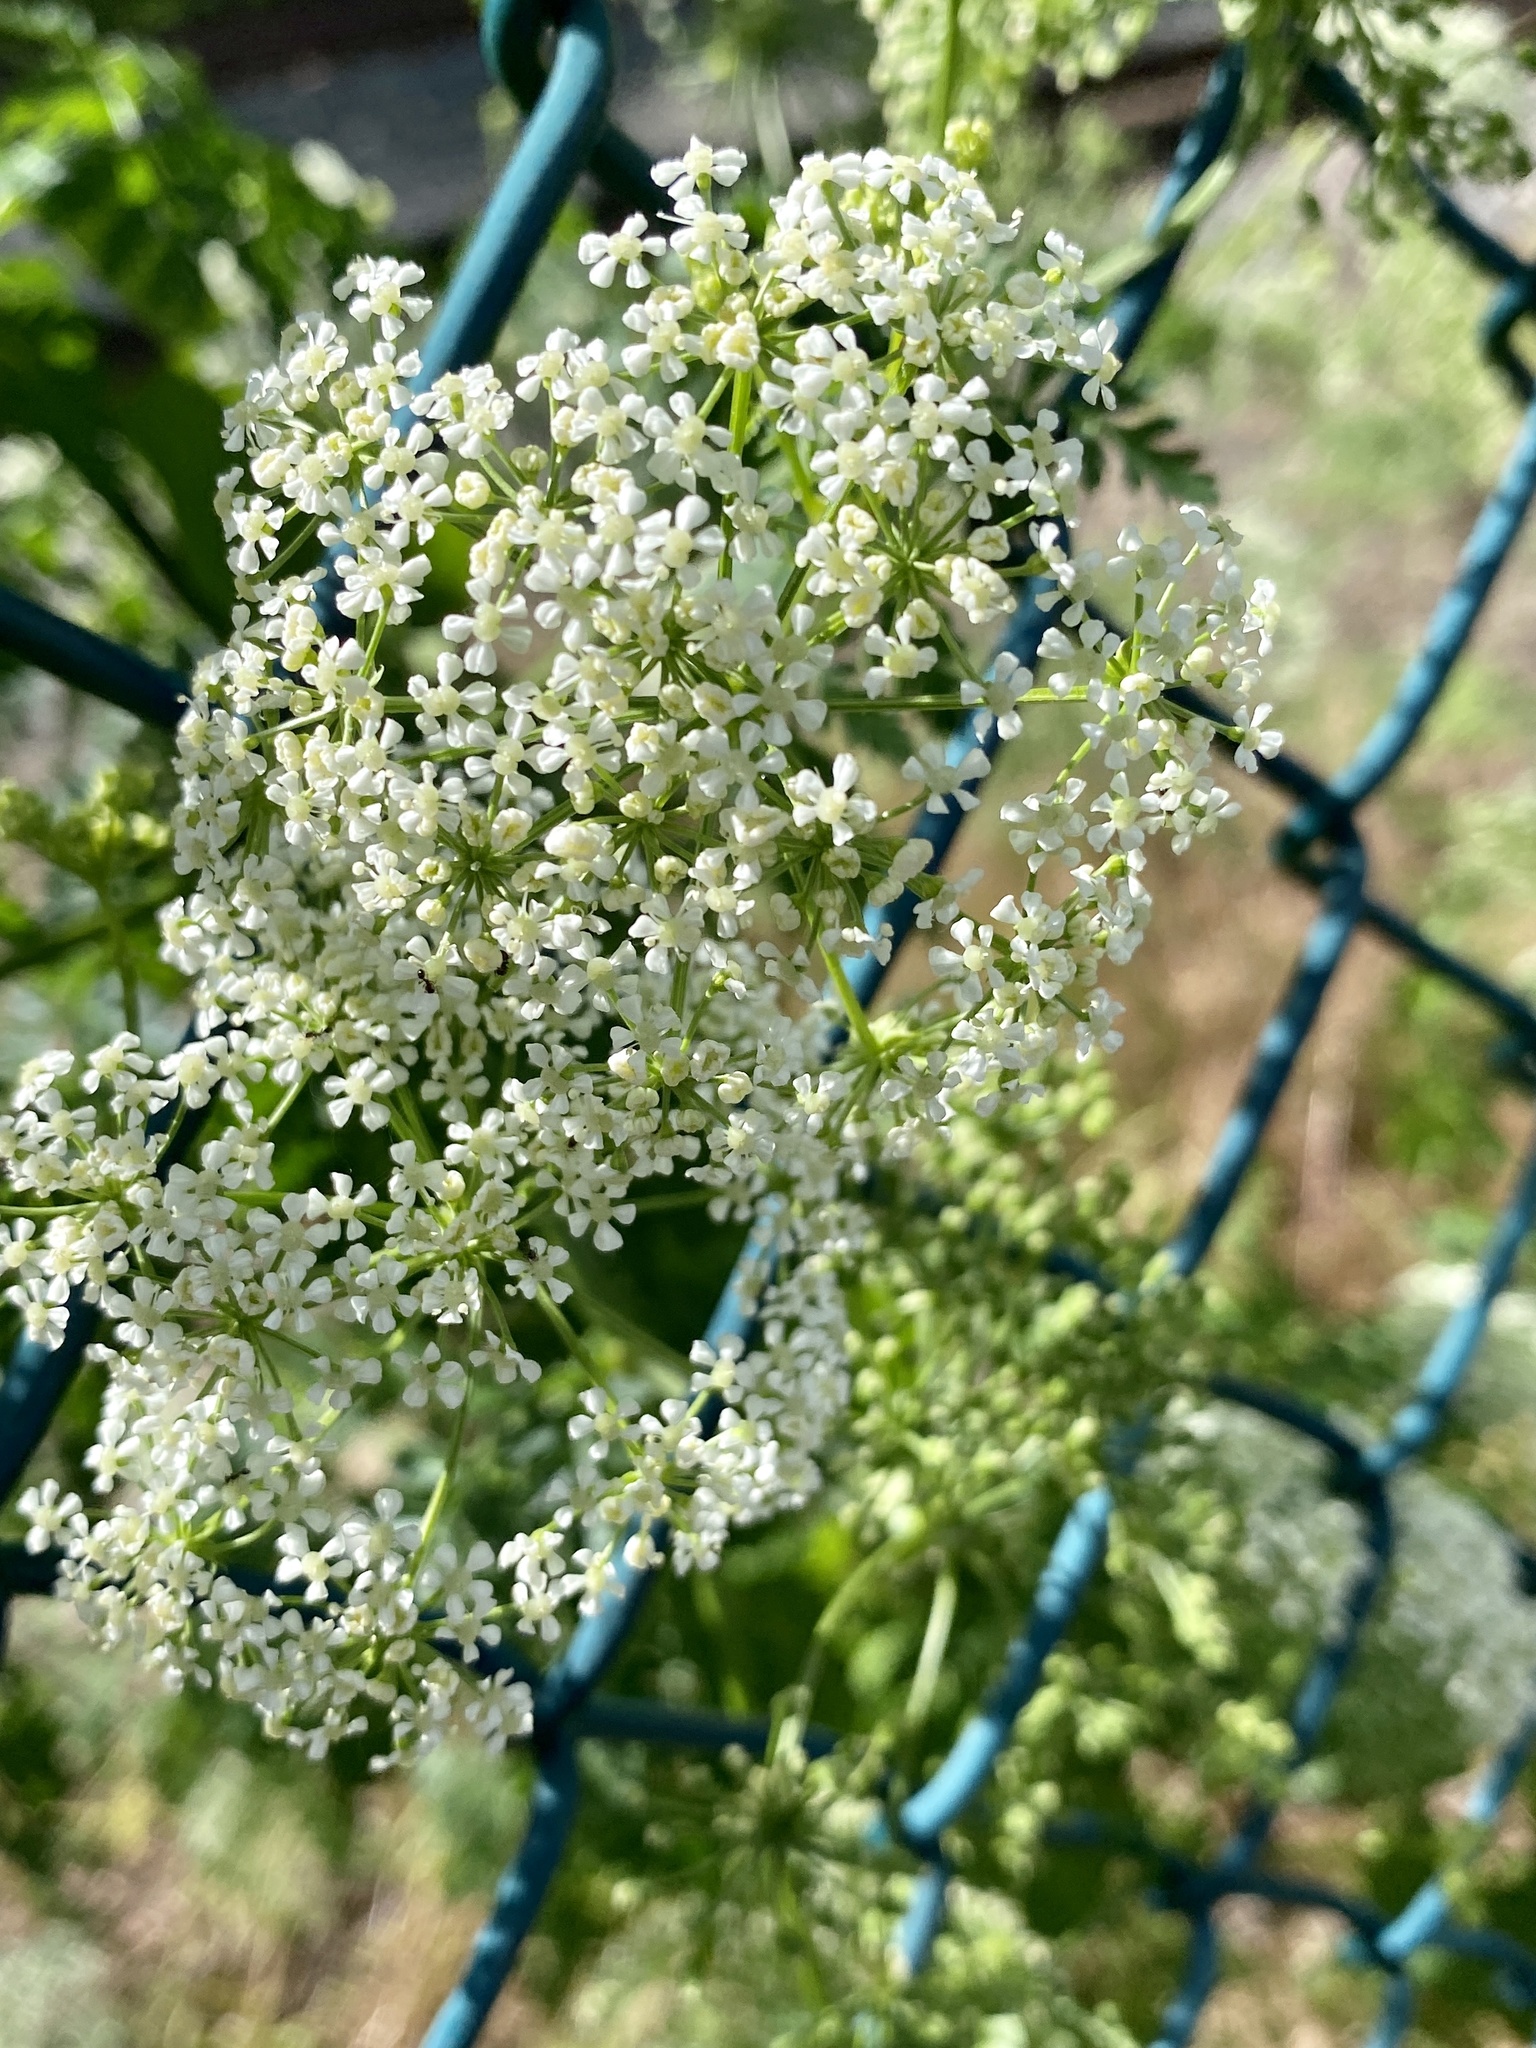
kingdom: Plantae
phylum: Tracheophyta
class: Magnoliopsida
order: Apiales
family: Apiaceae
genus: Conium
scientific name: Conium maculatum
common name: Hemlock
